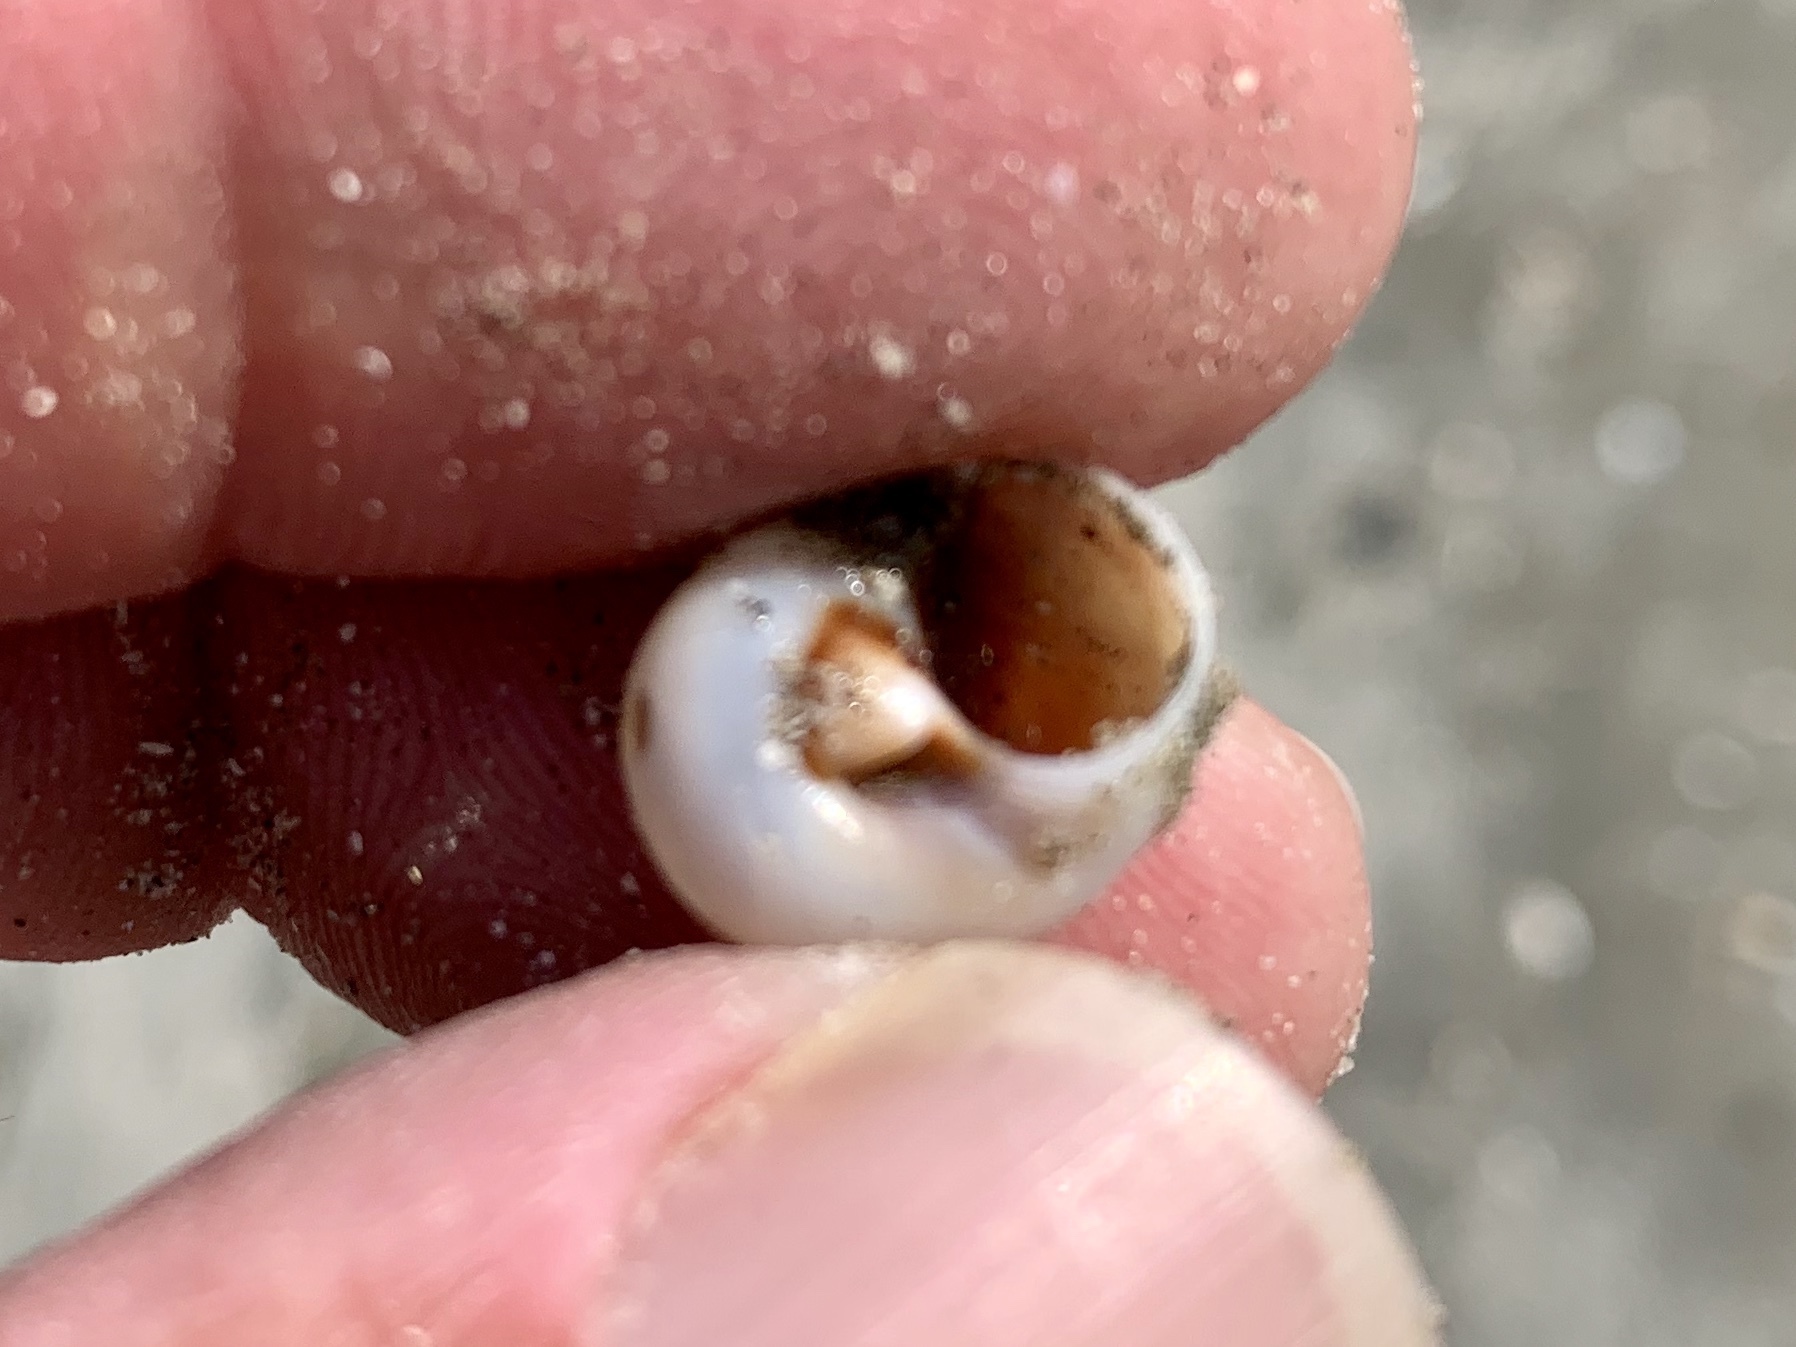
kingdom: Animalia
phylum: Mollusca
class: Gastropoda
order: Littorinimorpha
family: Naticidae
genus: Neverita
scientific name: Neverita delessertiana
